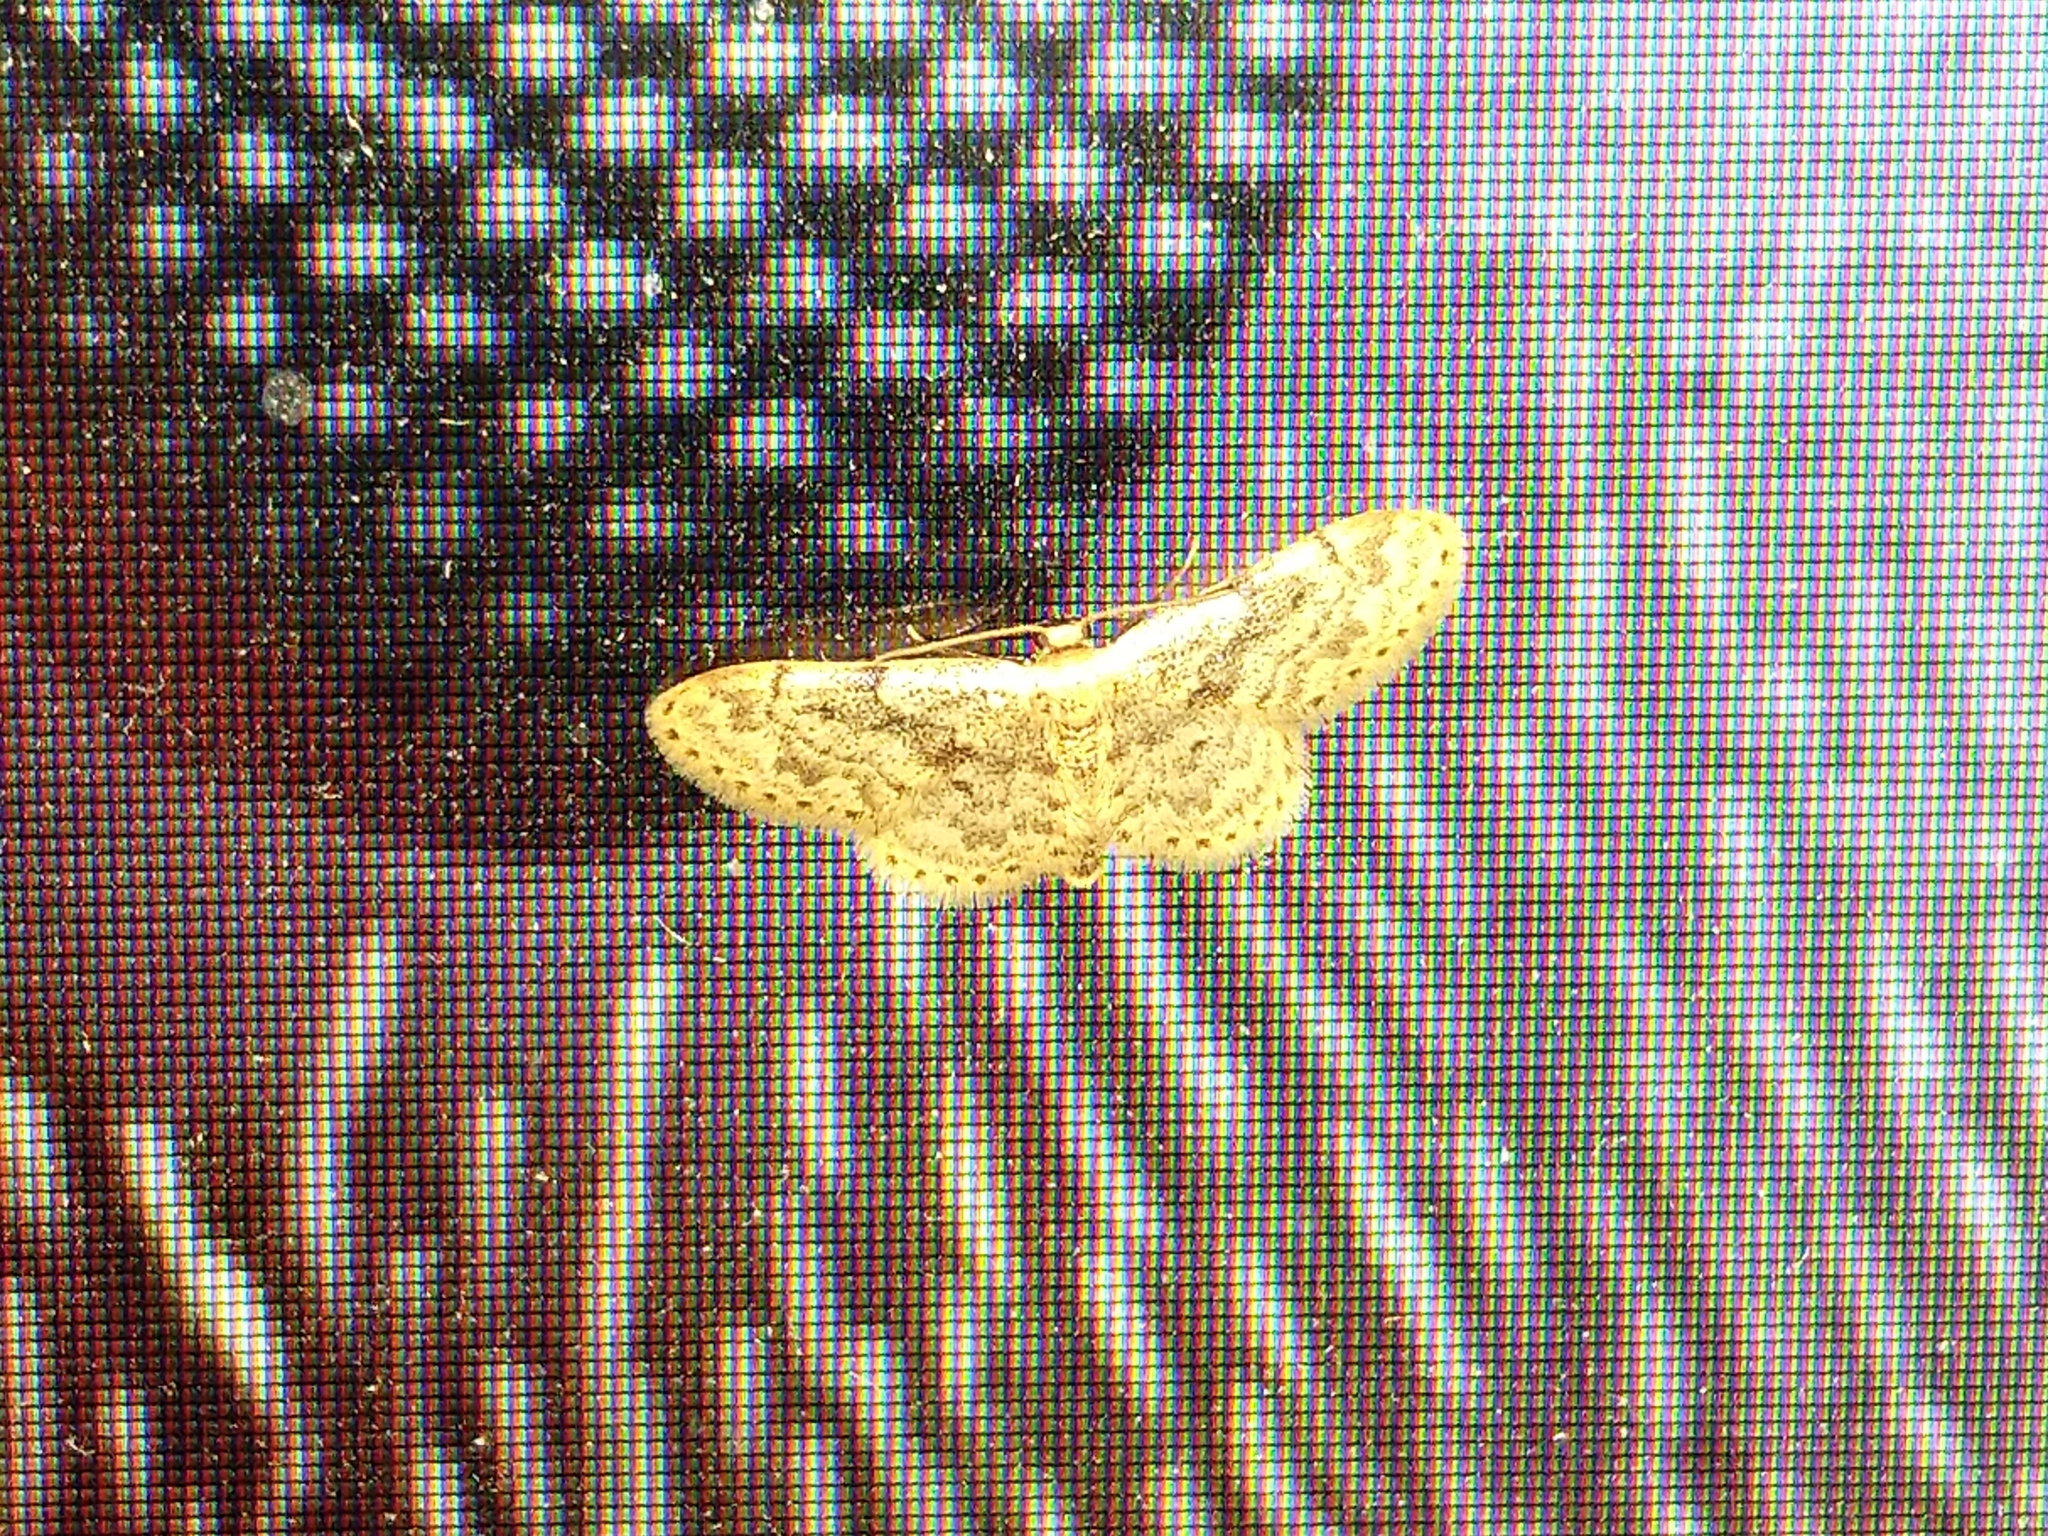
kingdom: Animalia
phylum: Arthropoda
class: Insecta
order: Lepidoptera
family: Geometridae
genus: Idaea
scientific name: Idaea inquinata
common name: Rusty wave
